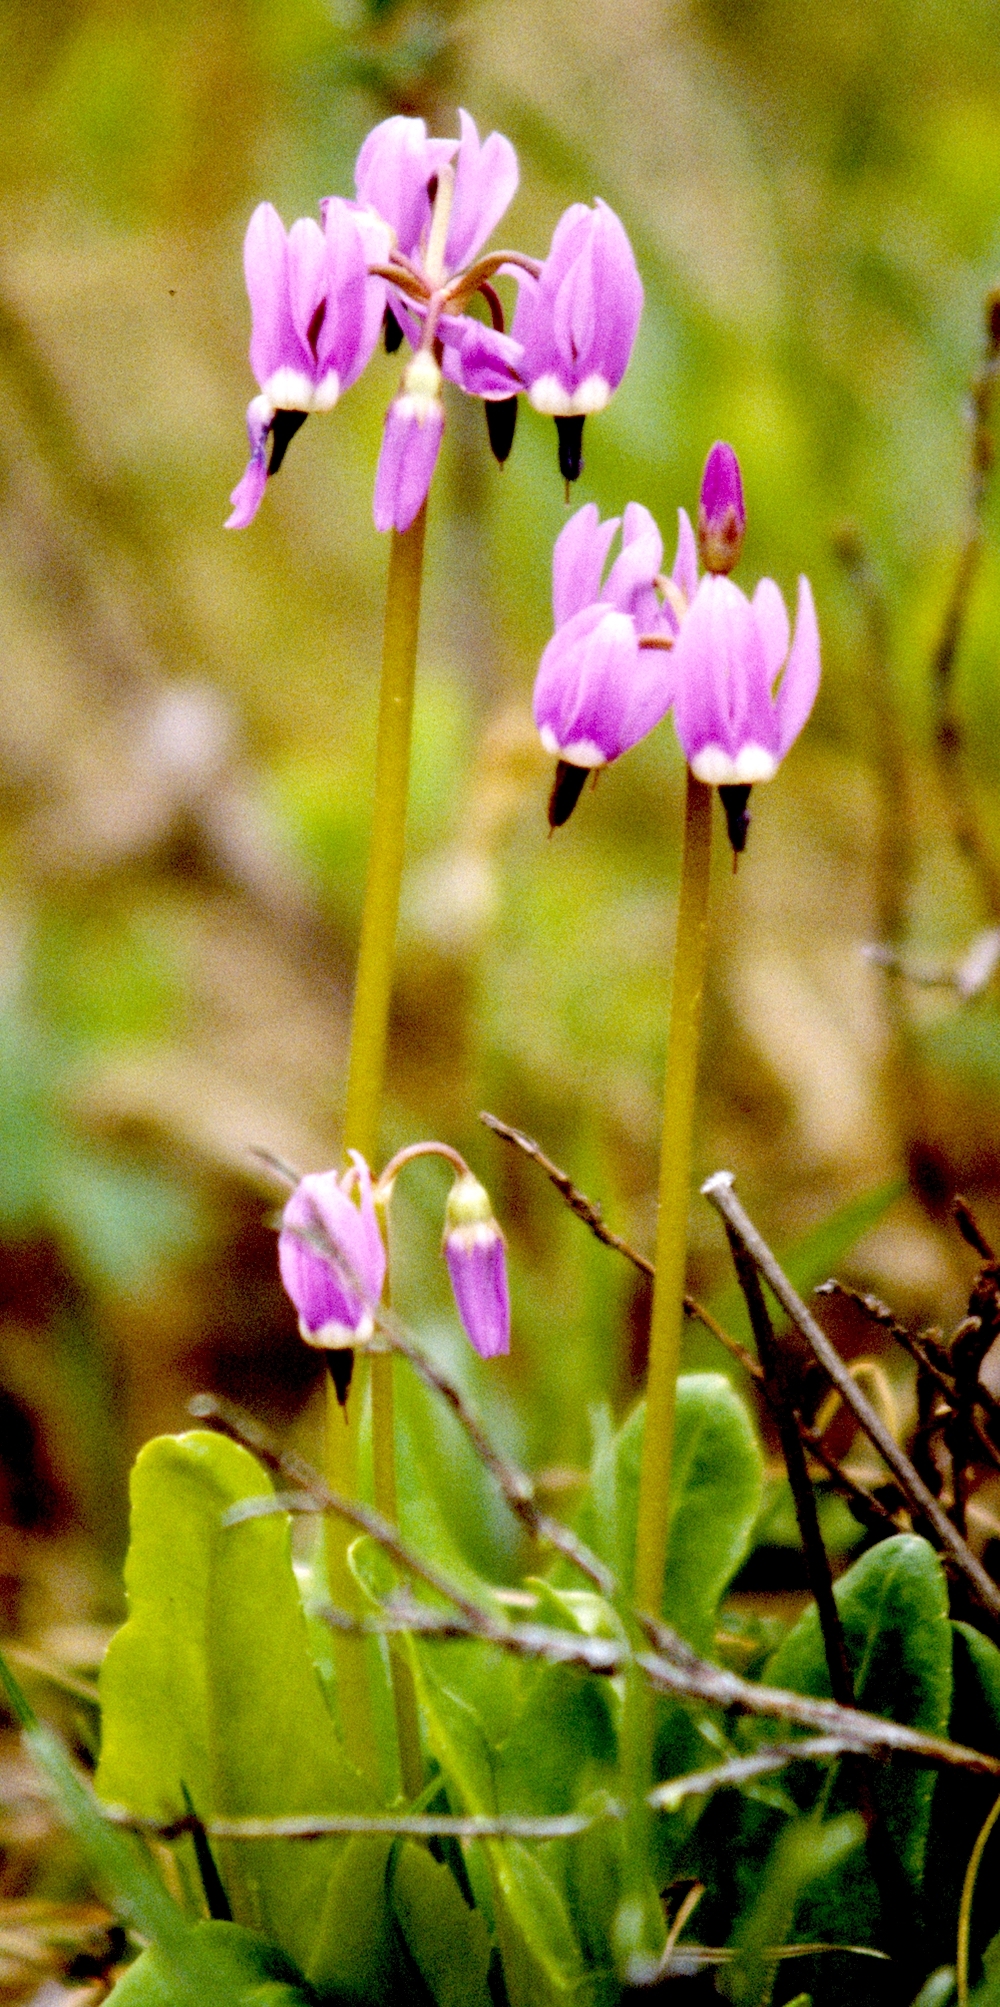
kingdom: Plantae
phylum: Tracheophyta
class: Magnoliopsida
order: Ericales
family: Primulaceae
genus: Dodecatheon
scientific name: Dodecatheon frigidum
